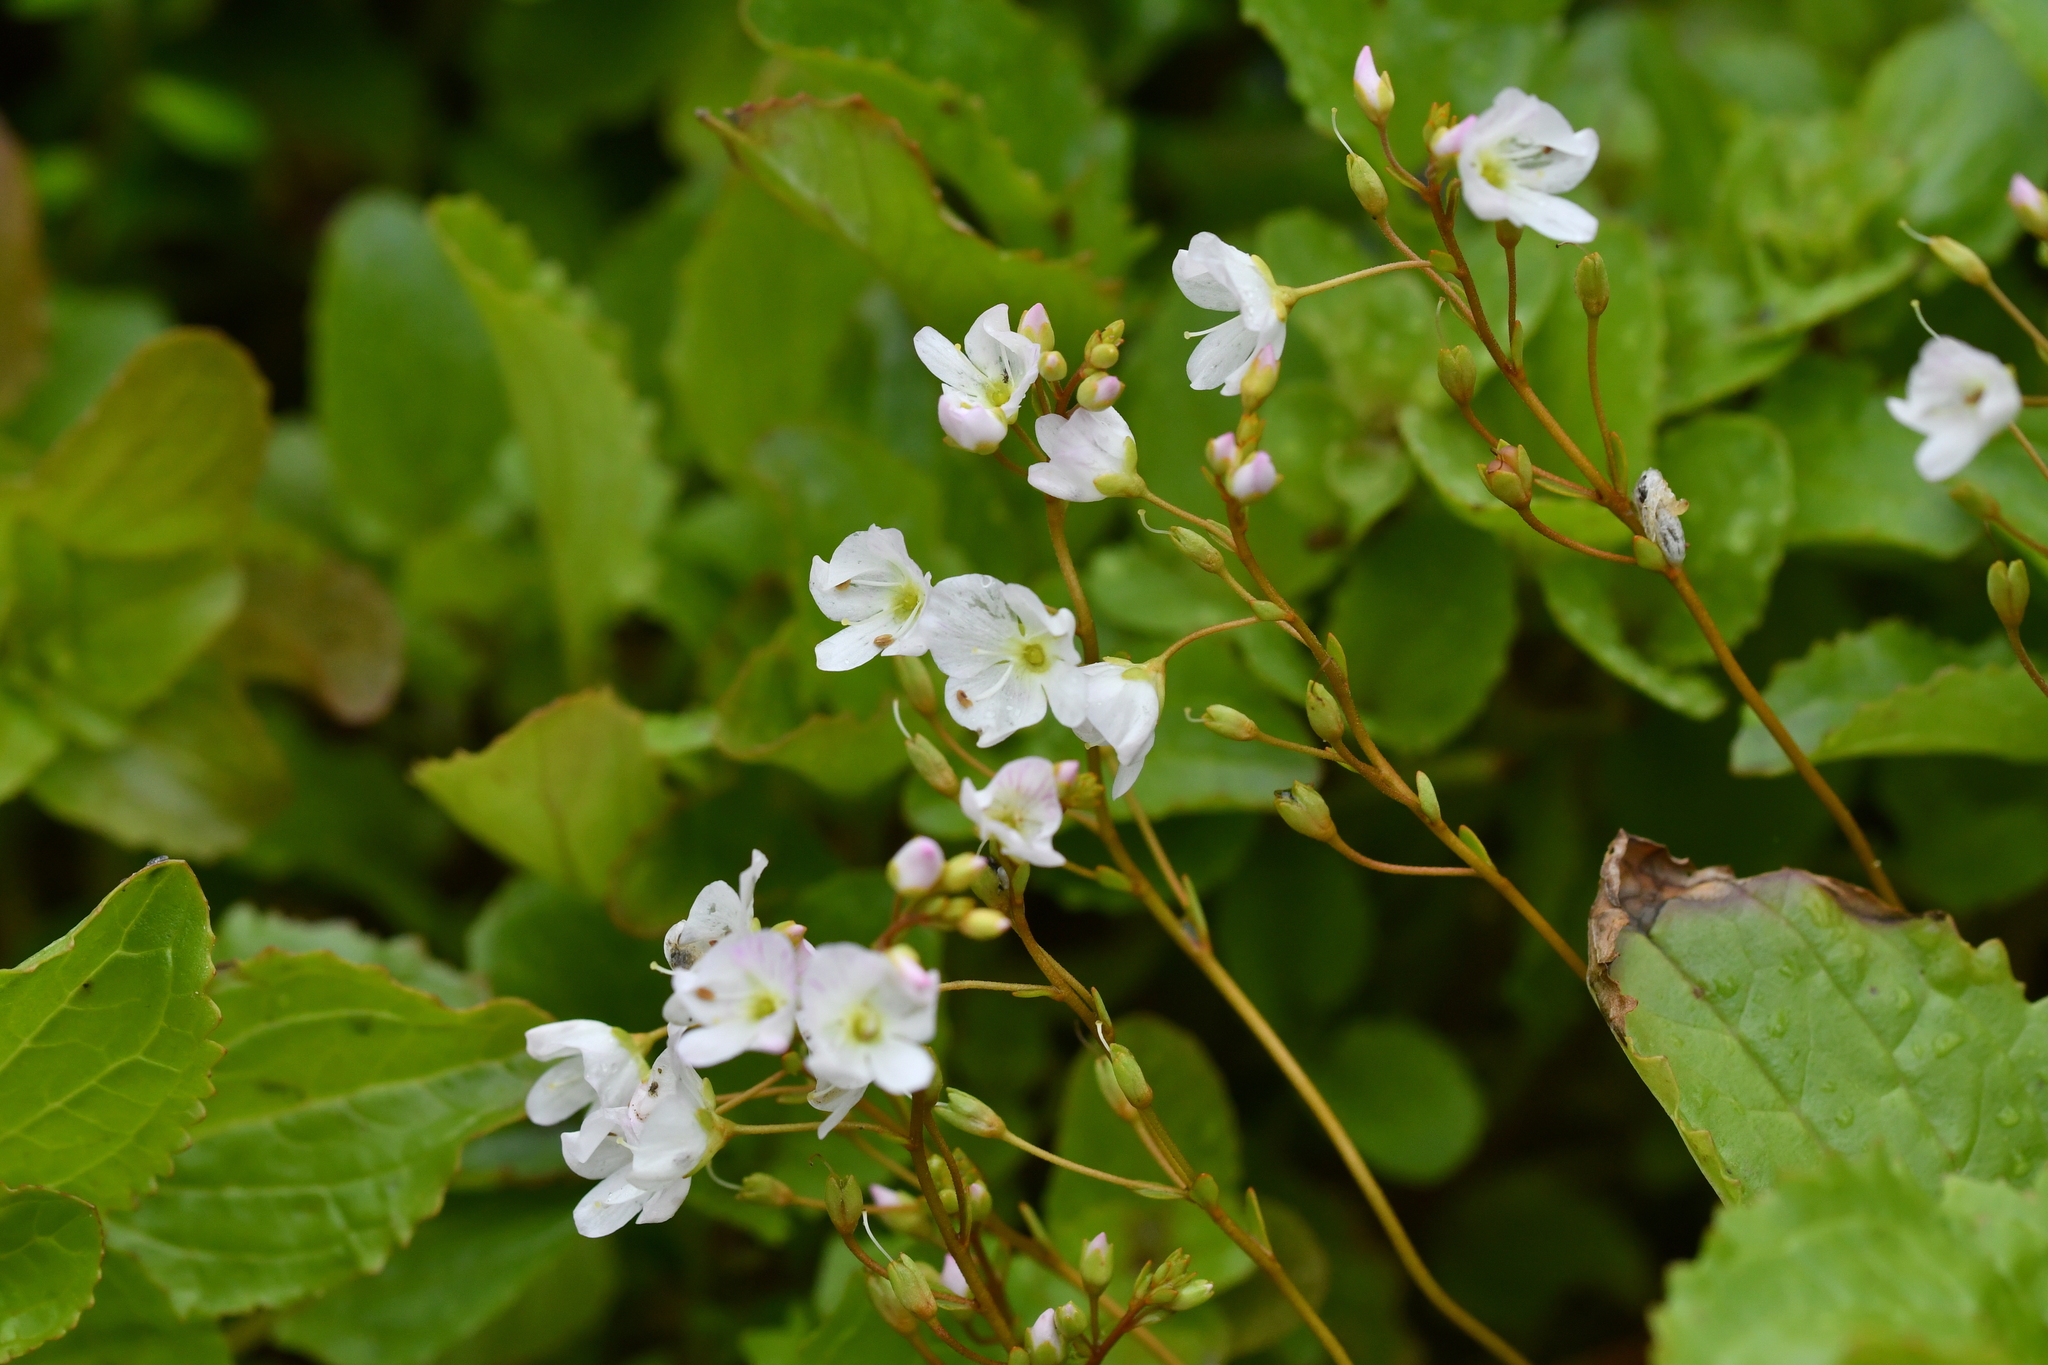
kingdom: Plantae
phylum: Tracheophyta
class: Magnoliopsida
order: Lamiales
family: Plantaginaceae
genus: Veronica
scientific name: Veronica lyallii
